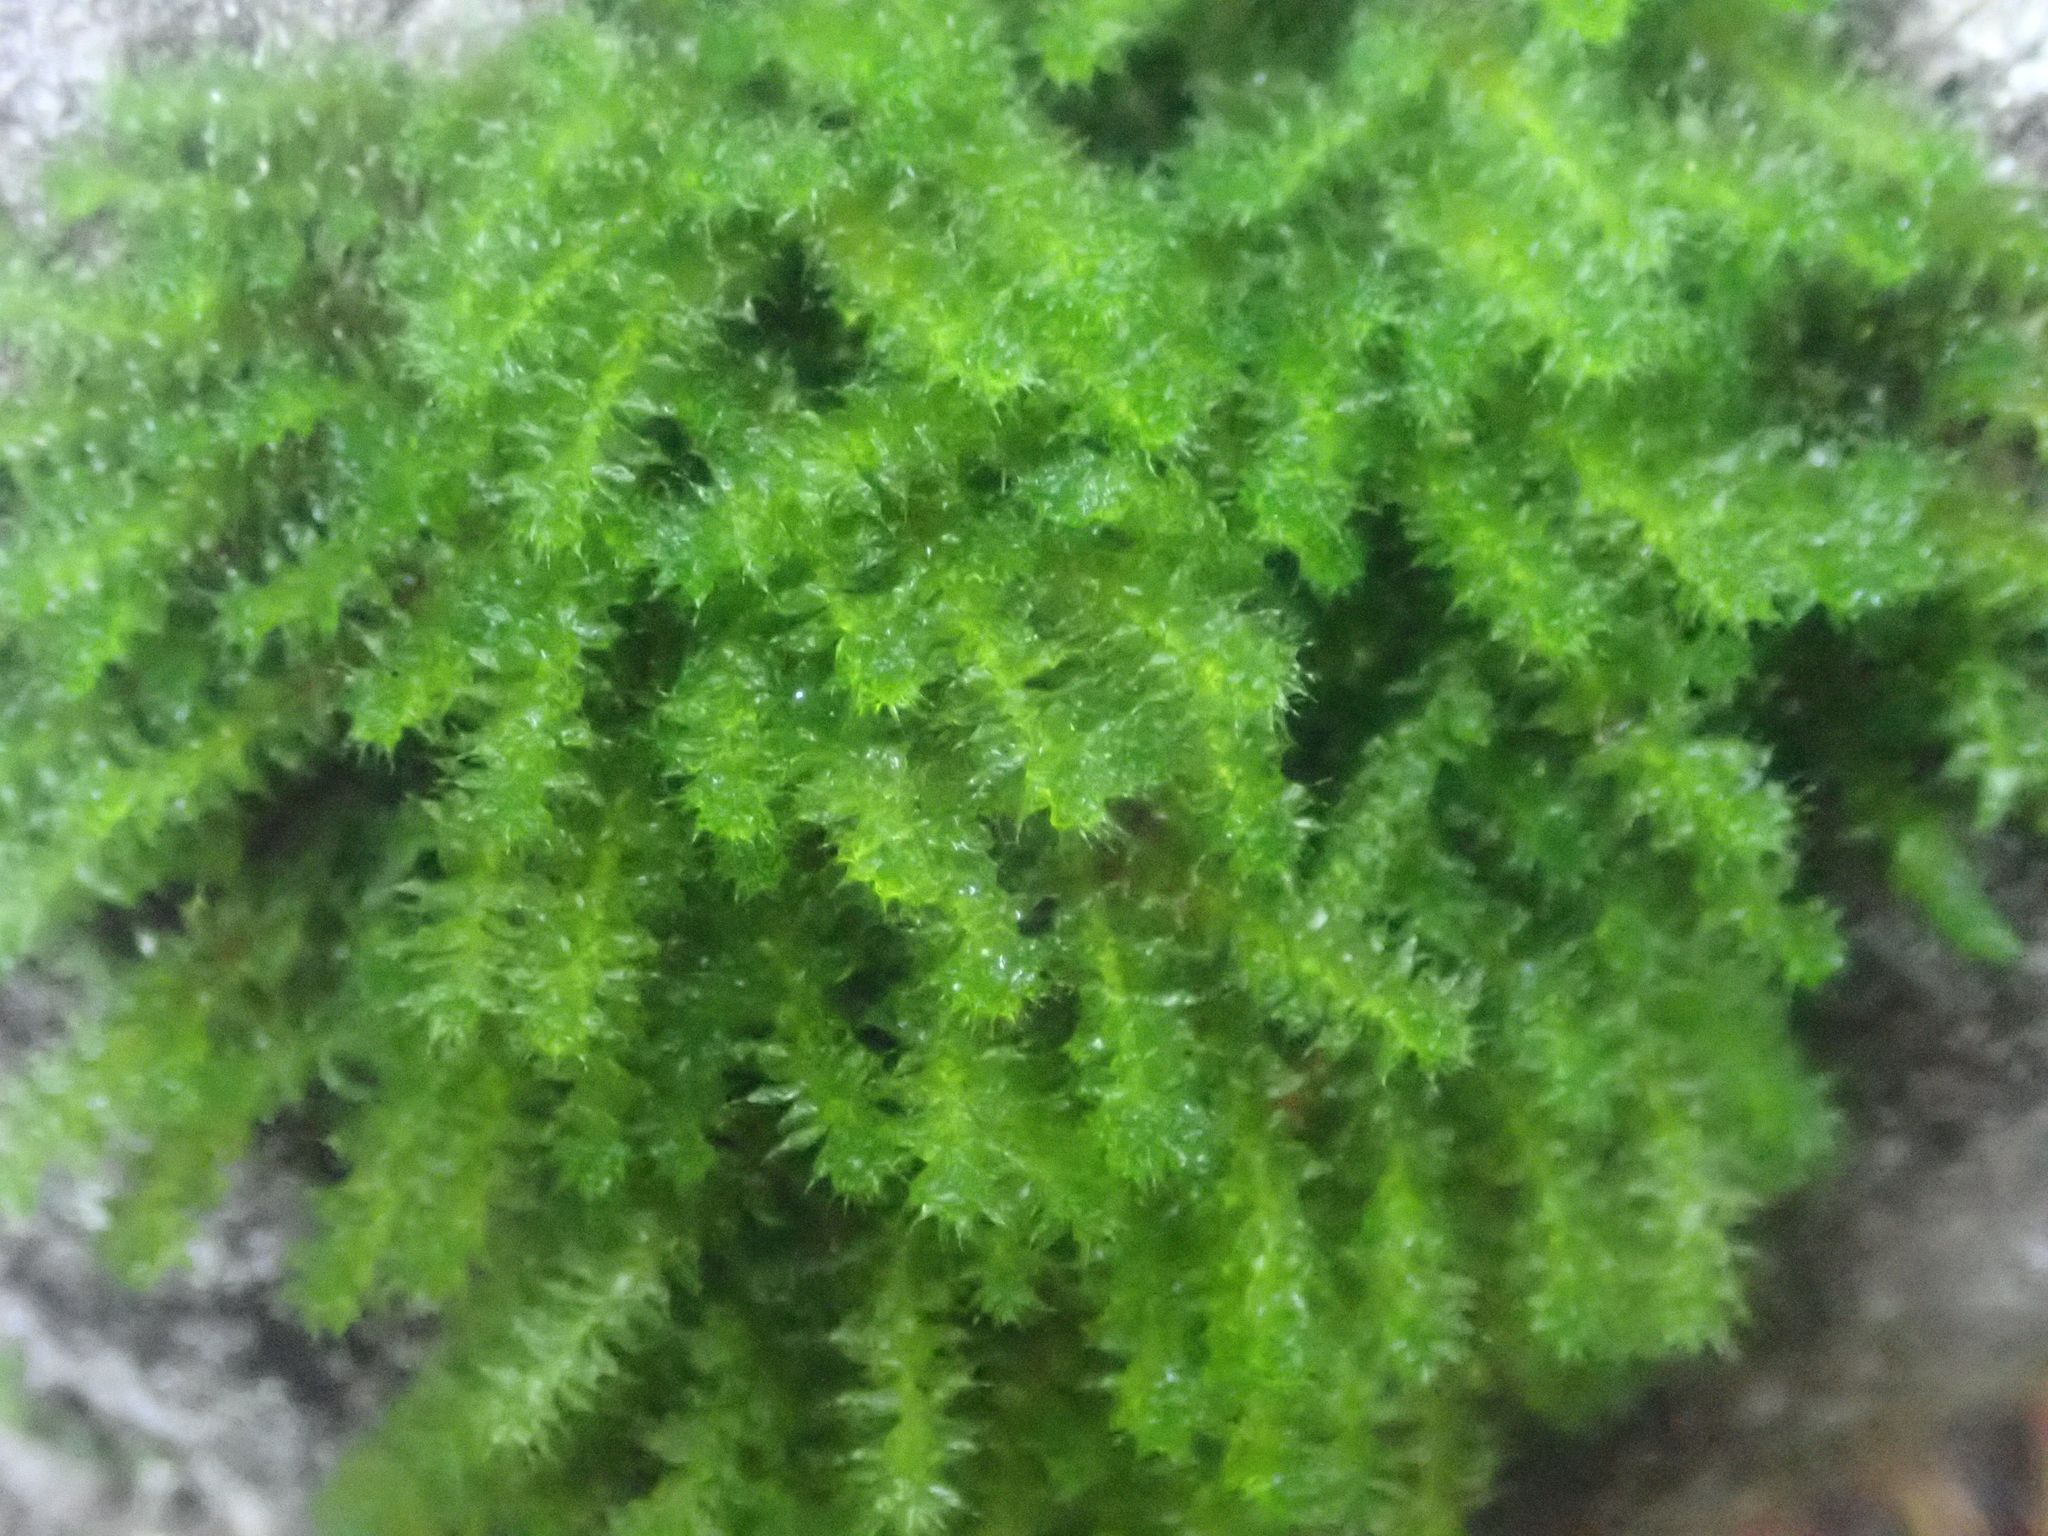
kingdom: Plantae
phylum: Bryophyta
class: Bryopsida
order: Ptychomniales
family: Ptychomniaceae
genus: Ptychomnion
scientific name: Ptychomnion aciculare
